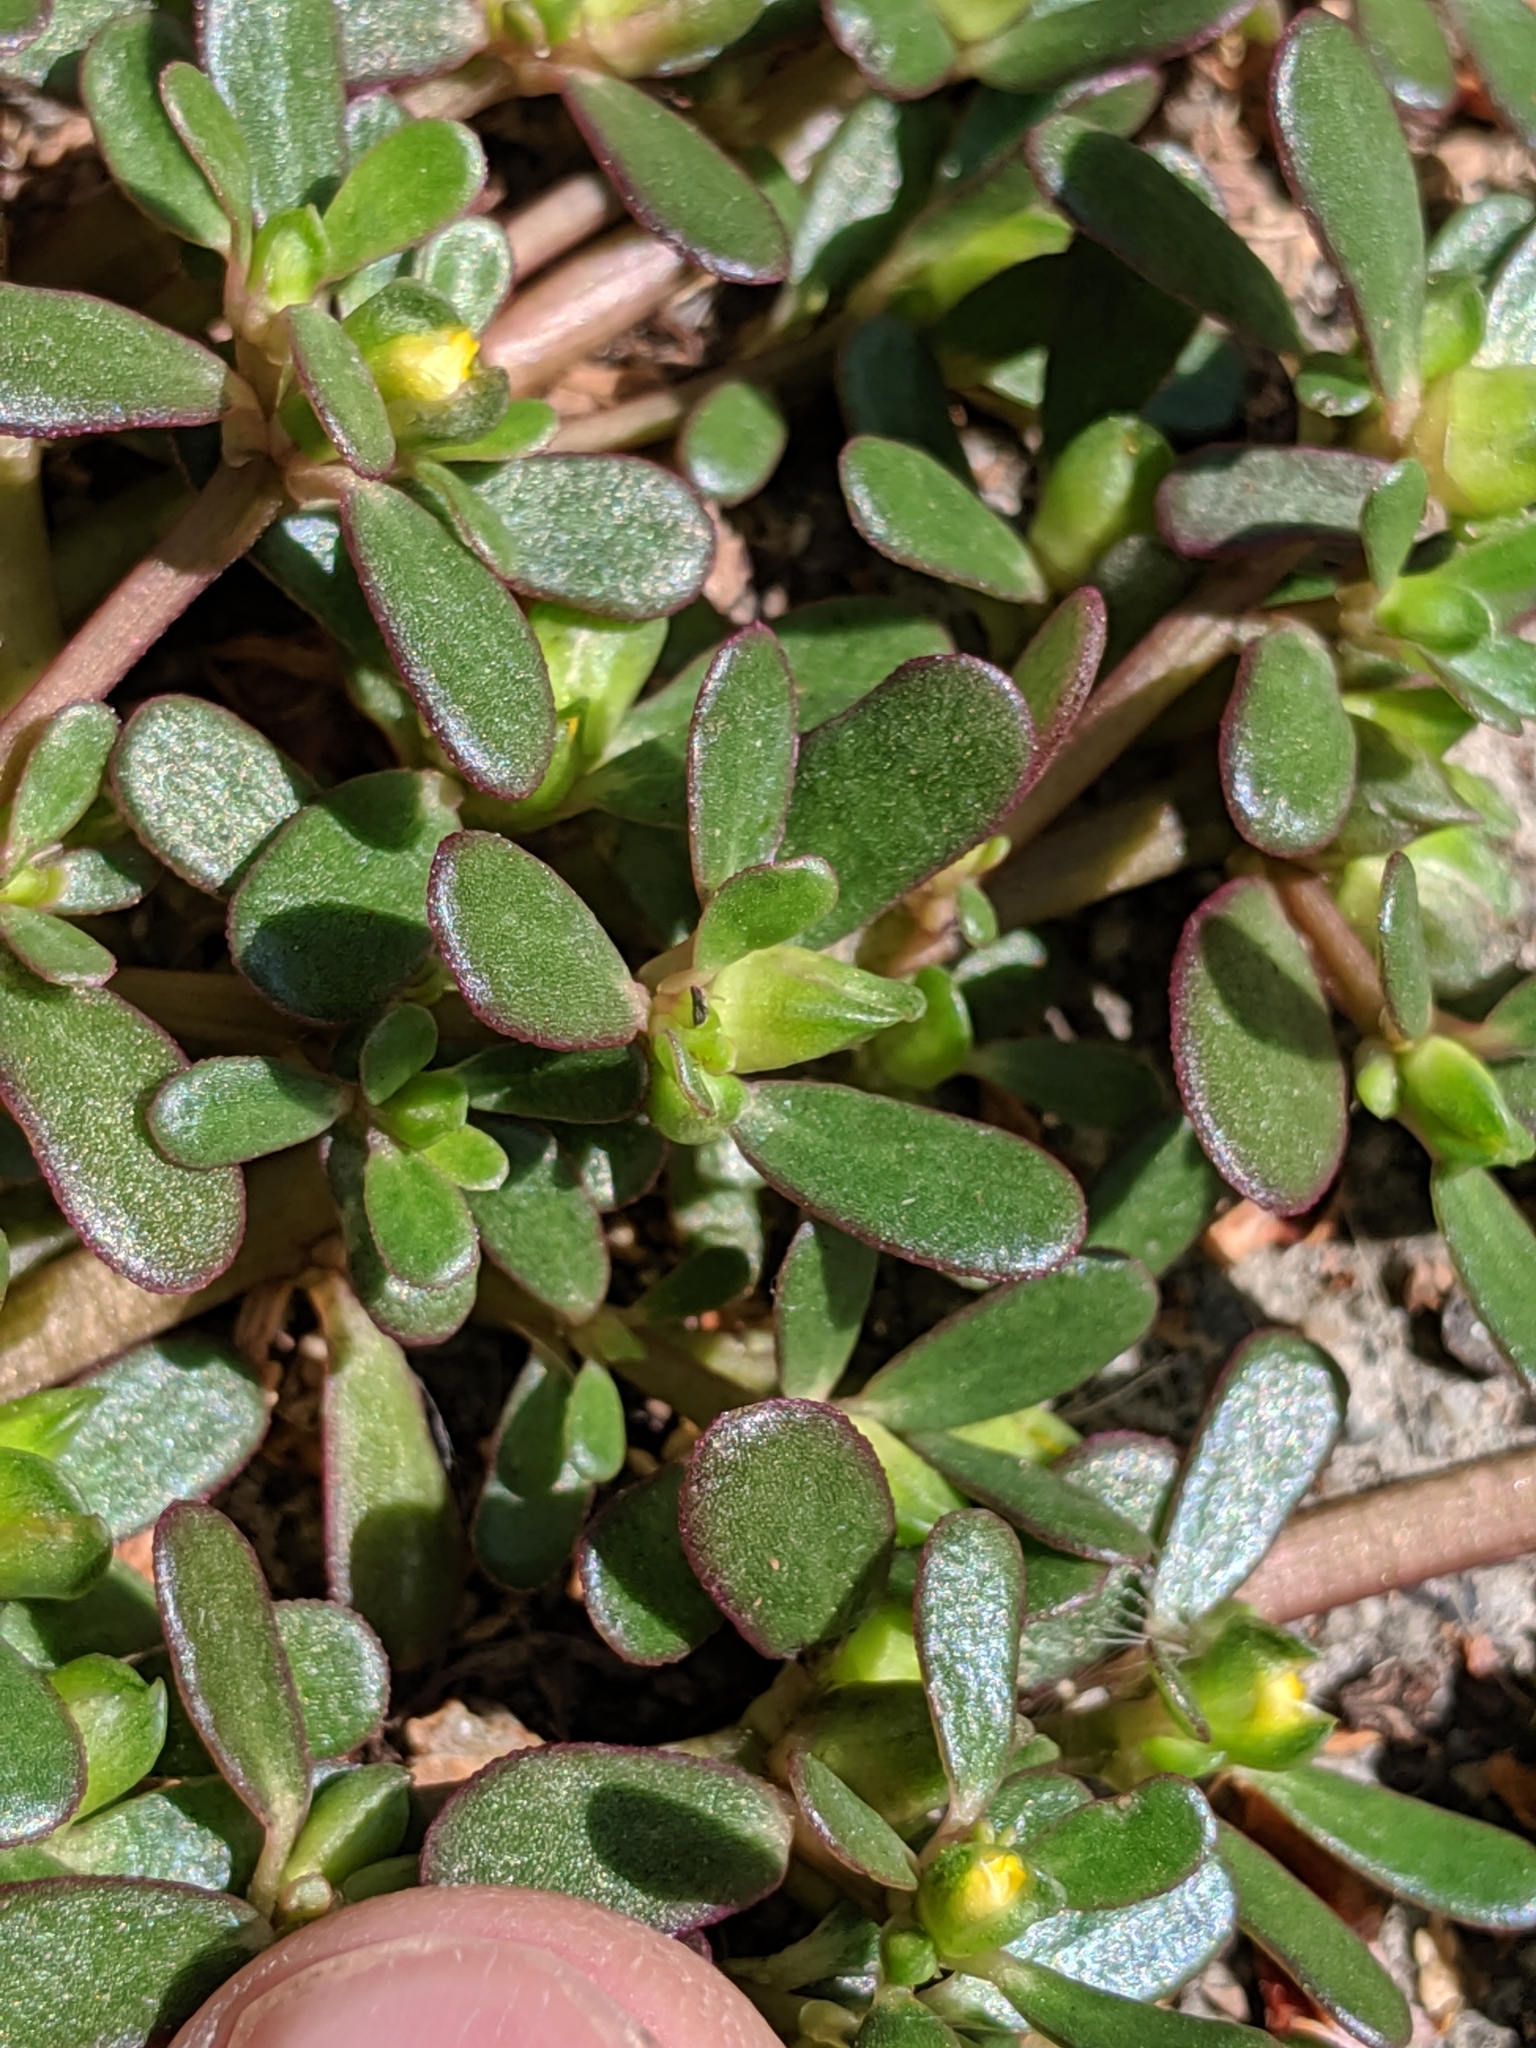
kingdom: Plantae
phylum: Tracheophyta
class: Magnoliopsida
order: Caryophyllales
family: Portulacaceae
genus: Portulaca
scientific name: Portulaca oleracea
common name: Common purslane
